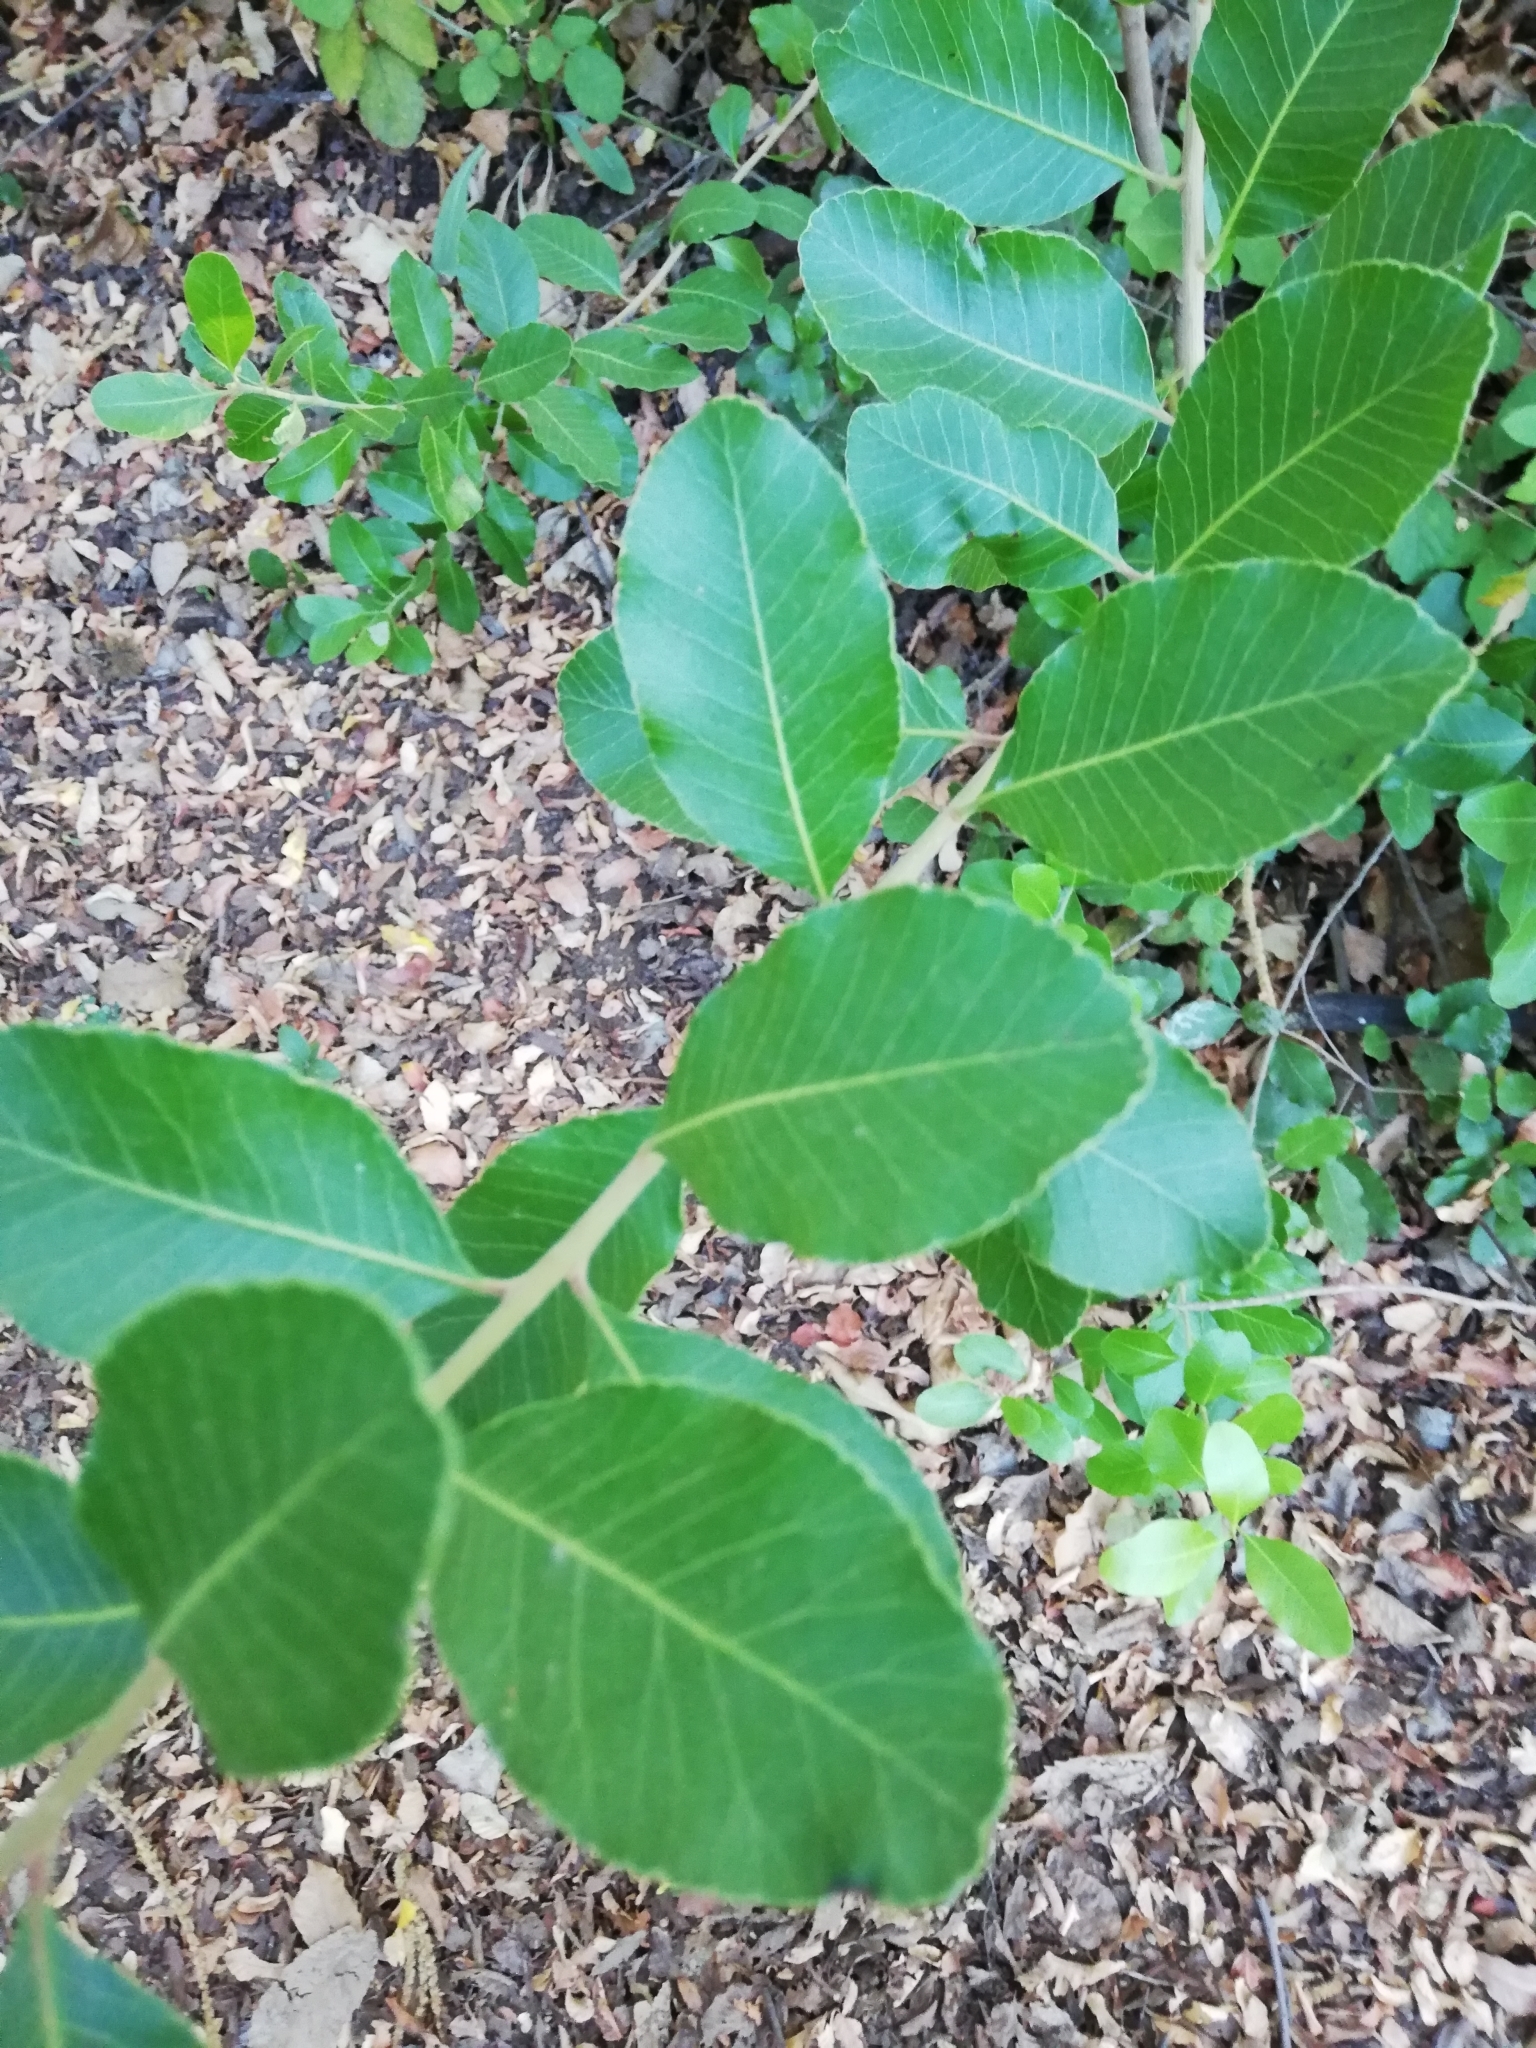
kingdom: Plantae
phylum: Tracheophyta
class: Magnoliopsida
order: Sapindales
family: Anacardiaceae
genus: Lithraea
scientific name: Lithraea caustica
